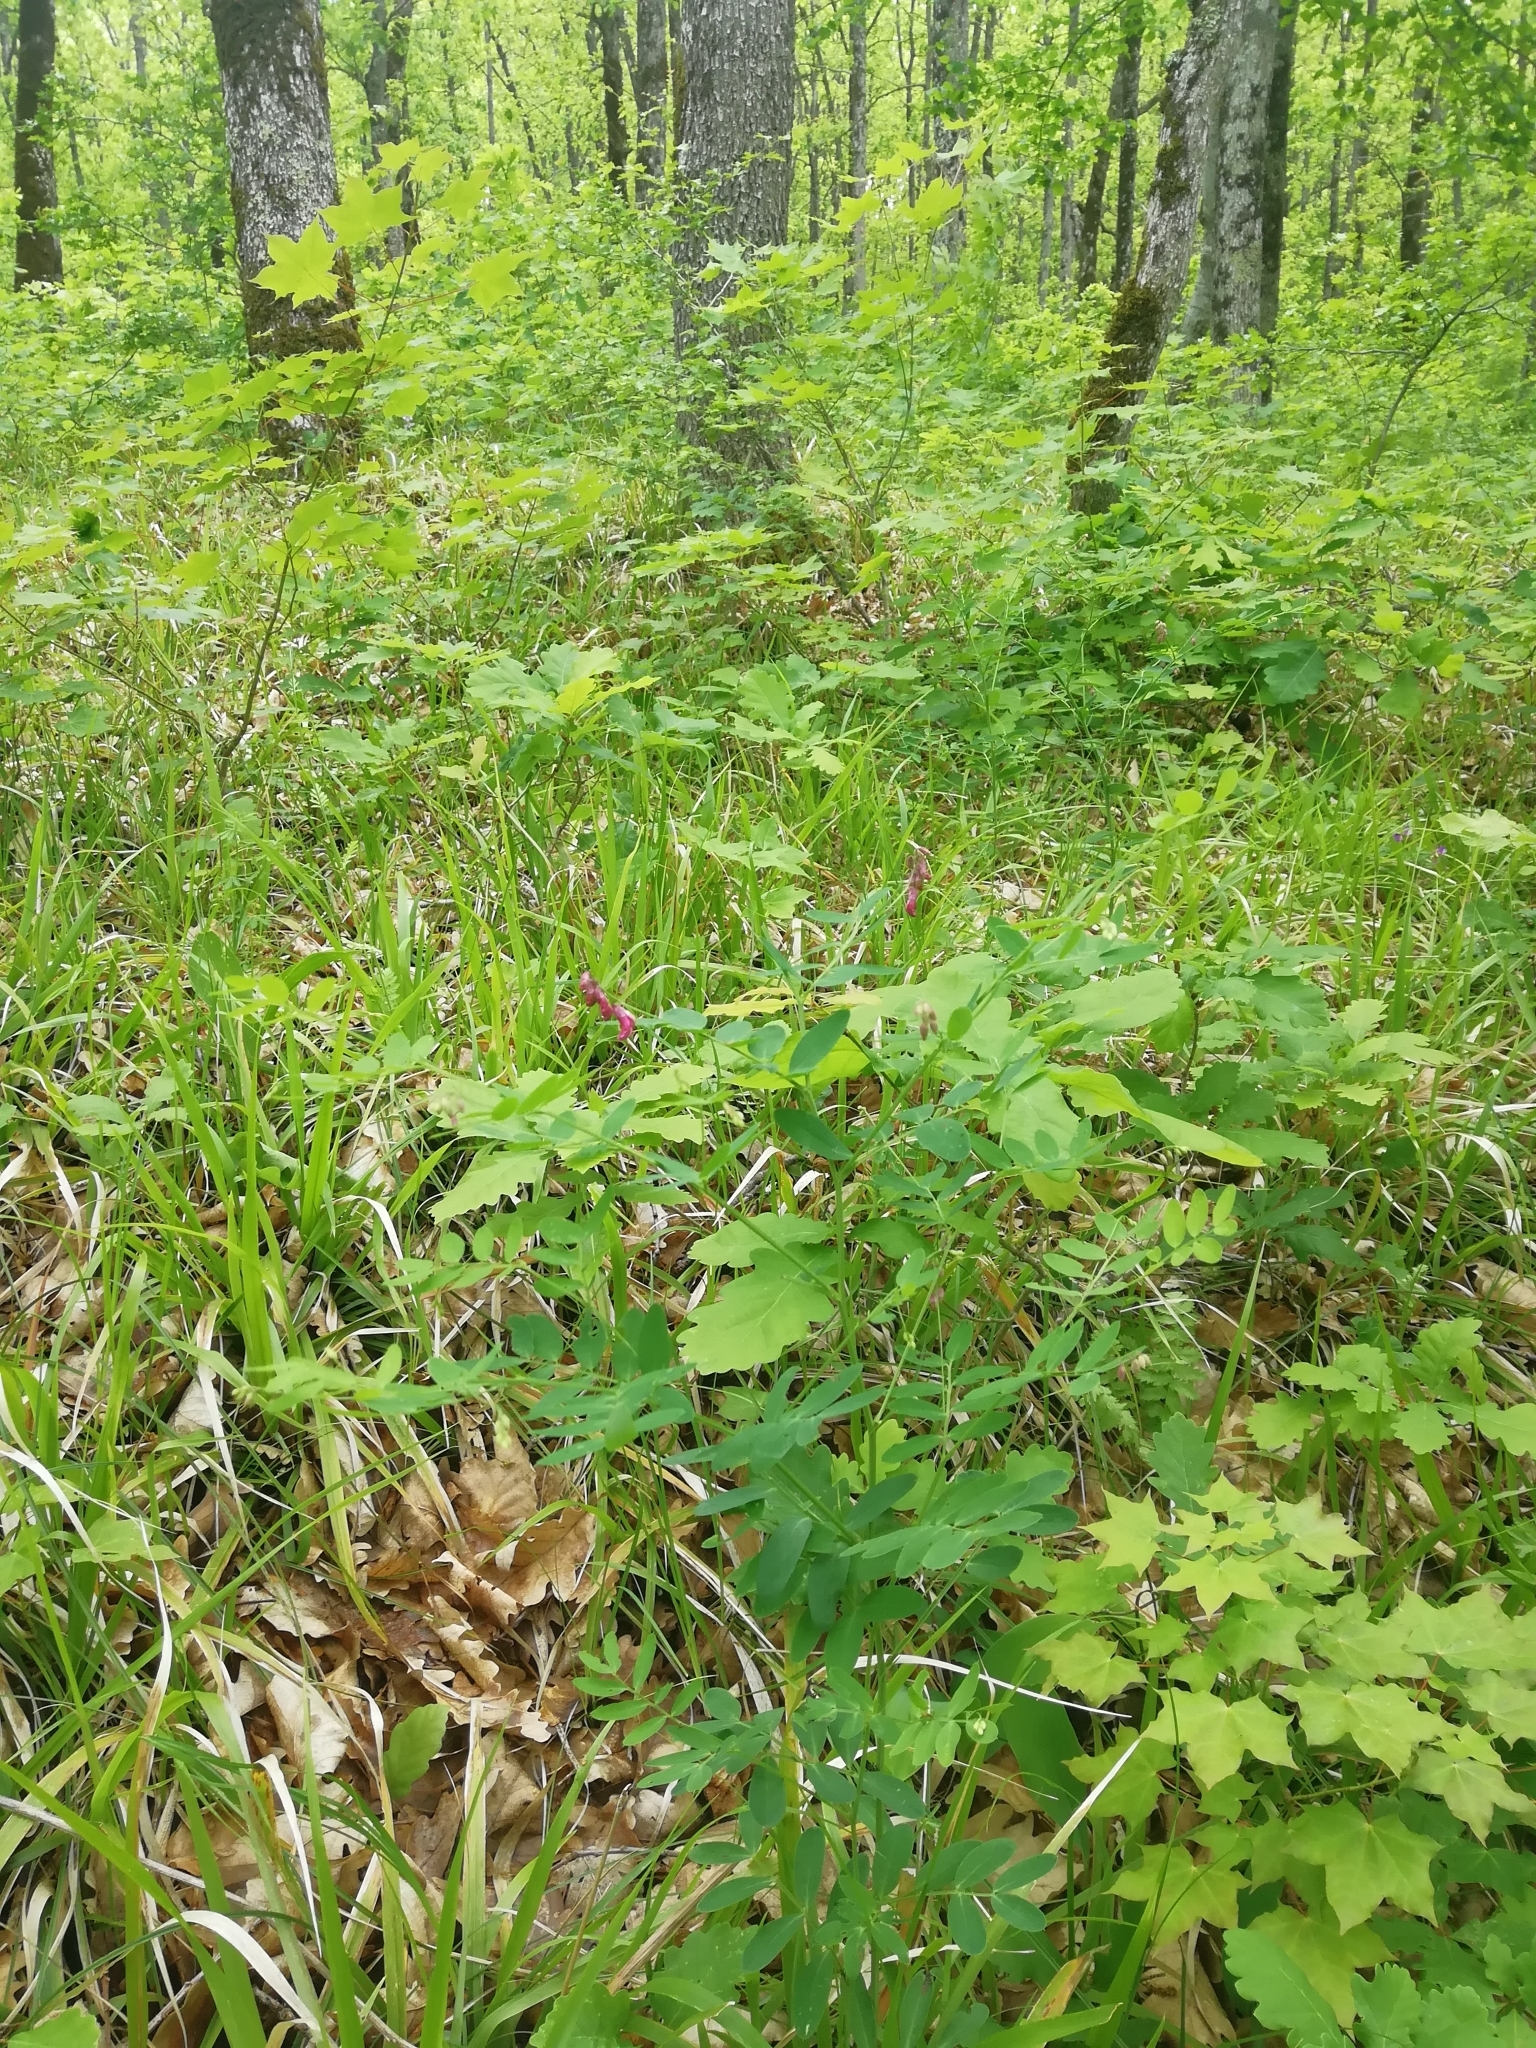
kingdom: Plantae
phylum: Tracheophyta
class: Magnoliopsida
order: Fabales
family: Fabaceae
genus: Lathyrus
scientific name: Lathyrus niger
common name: Black pea
